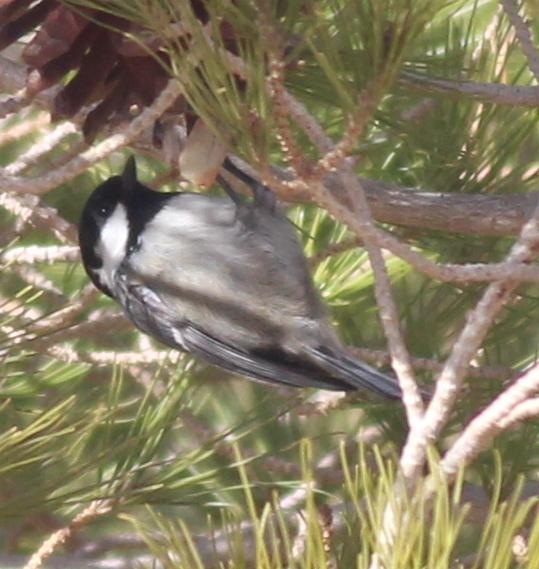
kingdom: Animalia
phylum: Chordata
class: Aves
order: Passeriformes
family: Paridae
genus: Periparus
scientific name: Periparus ater
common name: Coal tit
